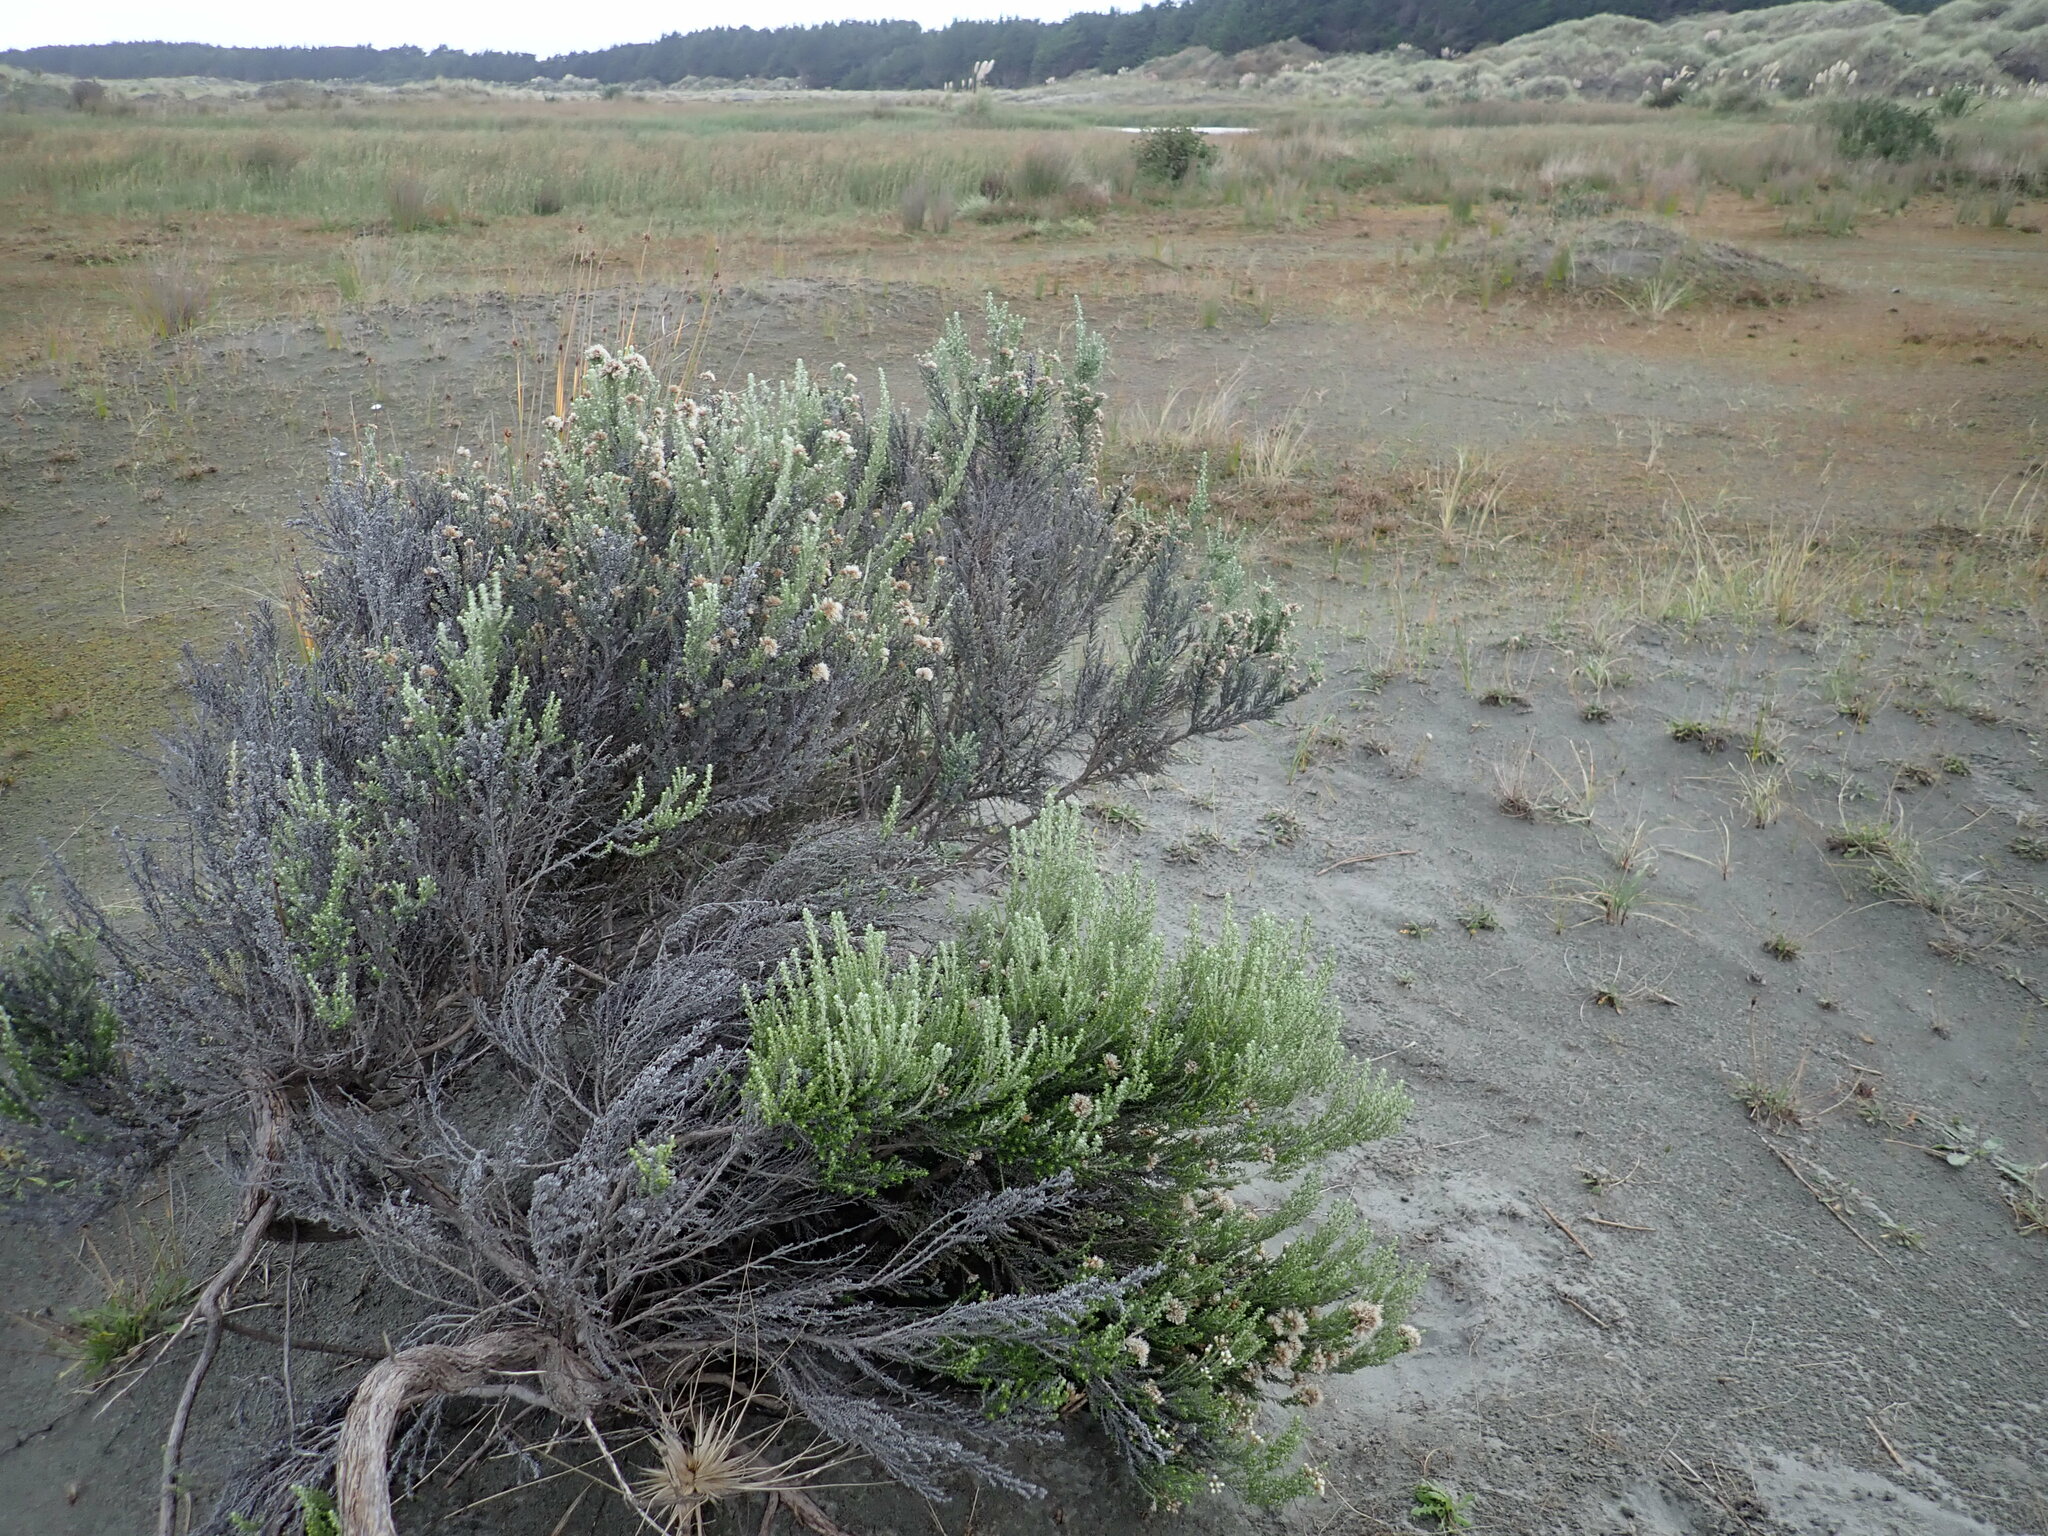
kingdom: Plantae
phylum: Tracheophyta
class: Magnoliopsida
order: Asterales
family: Asteraceae
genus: Ozothamnus
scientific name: Ozothamnus leptophyllus
